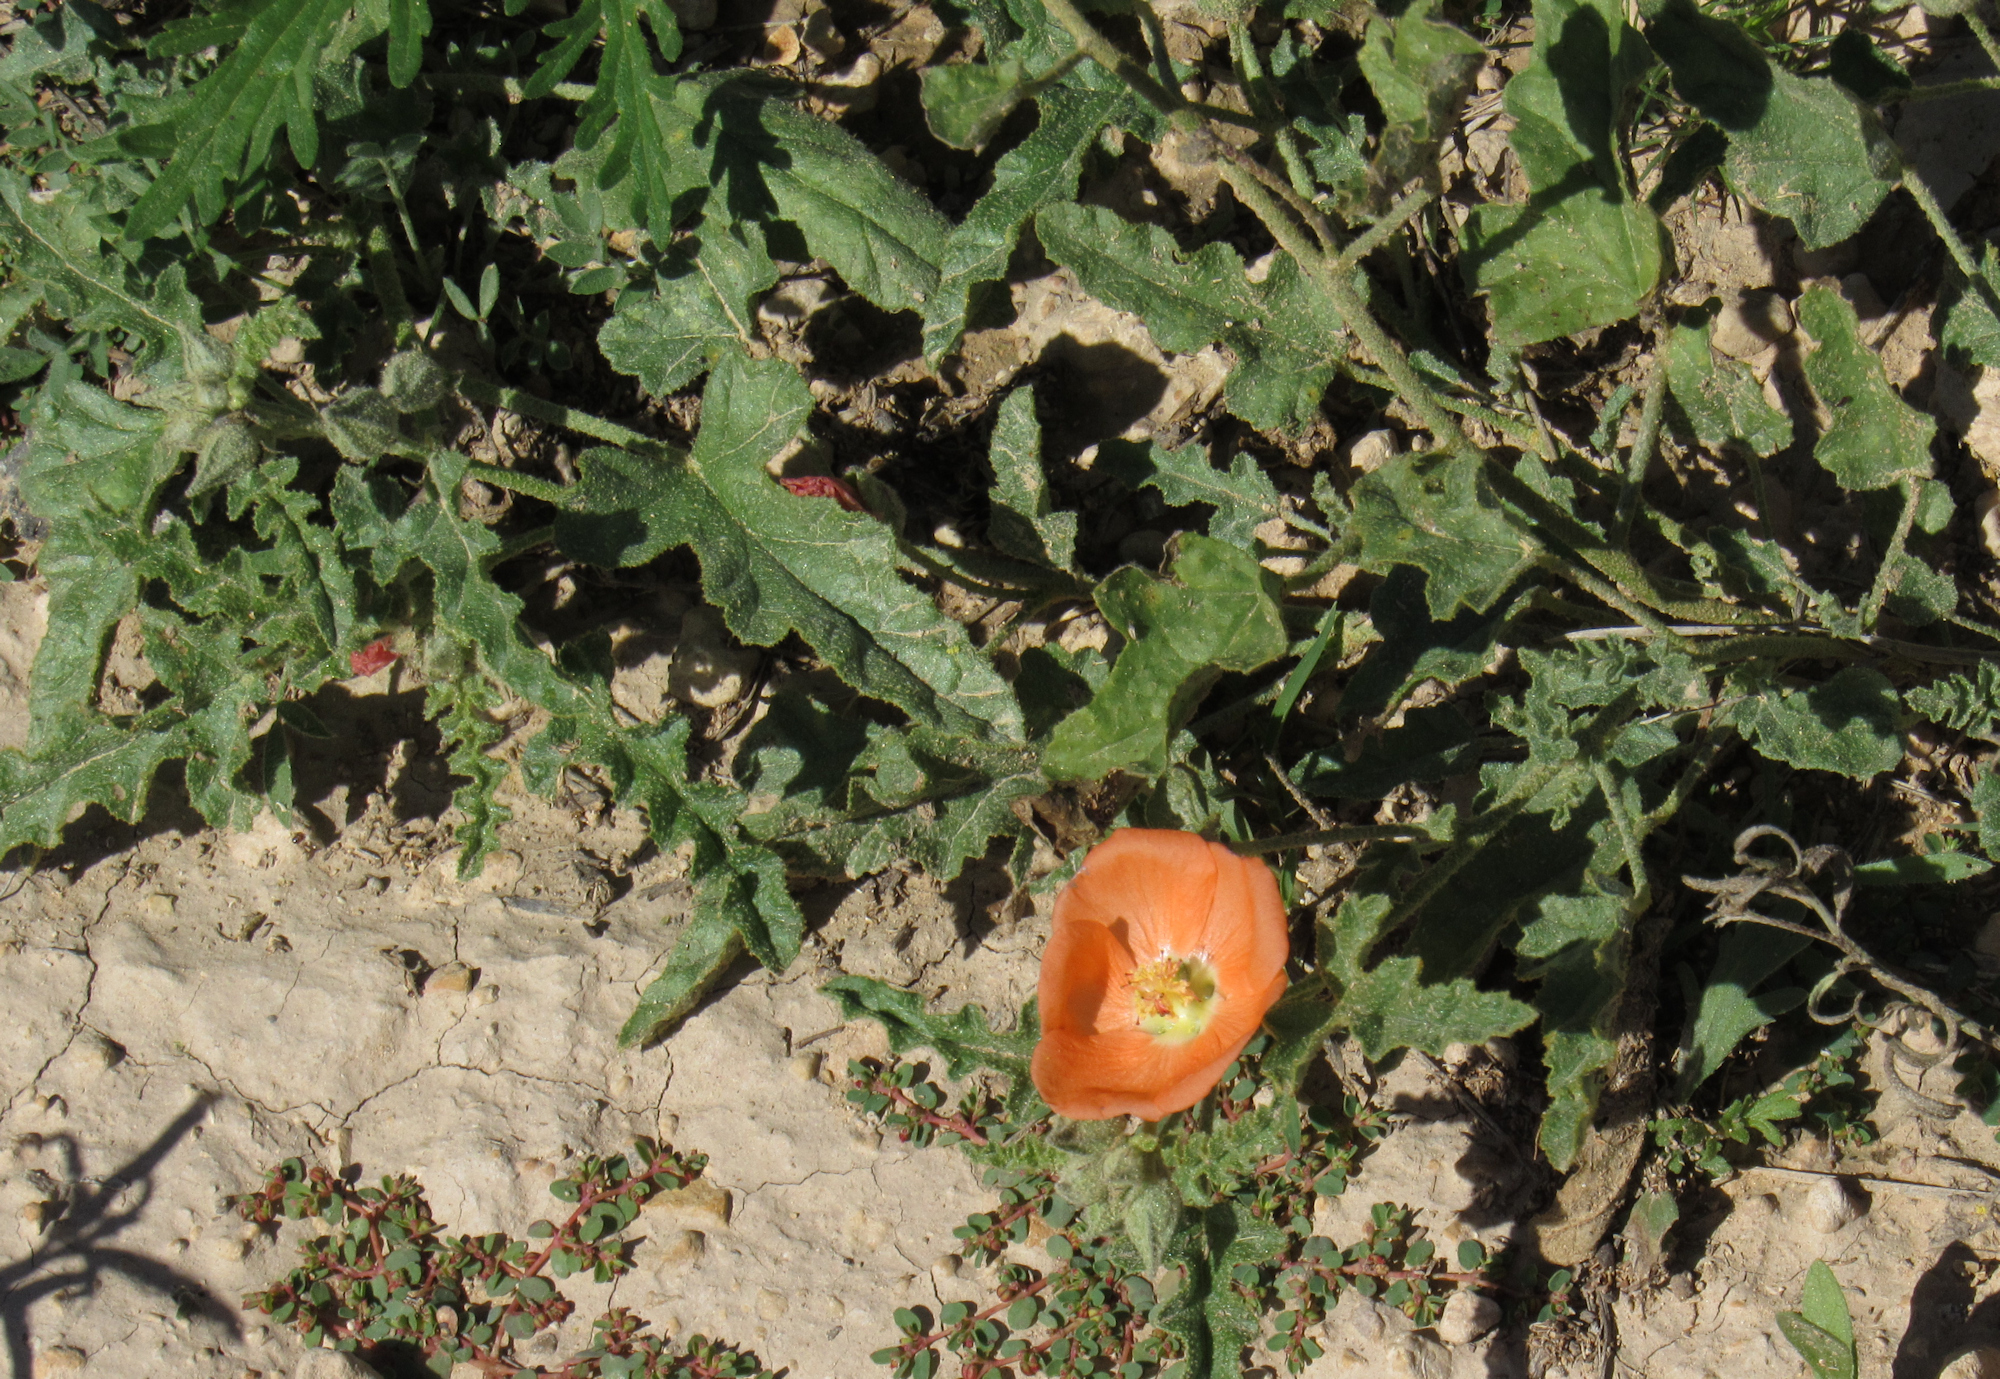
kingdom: Plantae
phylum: Tracheophyta
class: Magnoliopsida
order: Malvales
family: Malvaceae
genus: Sphaeralcea
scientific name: Sphaeralcea hastulata
